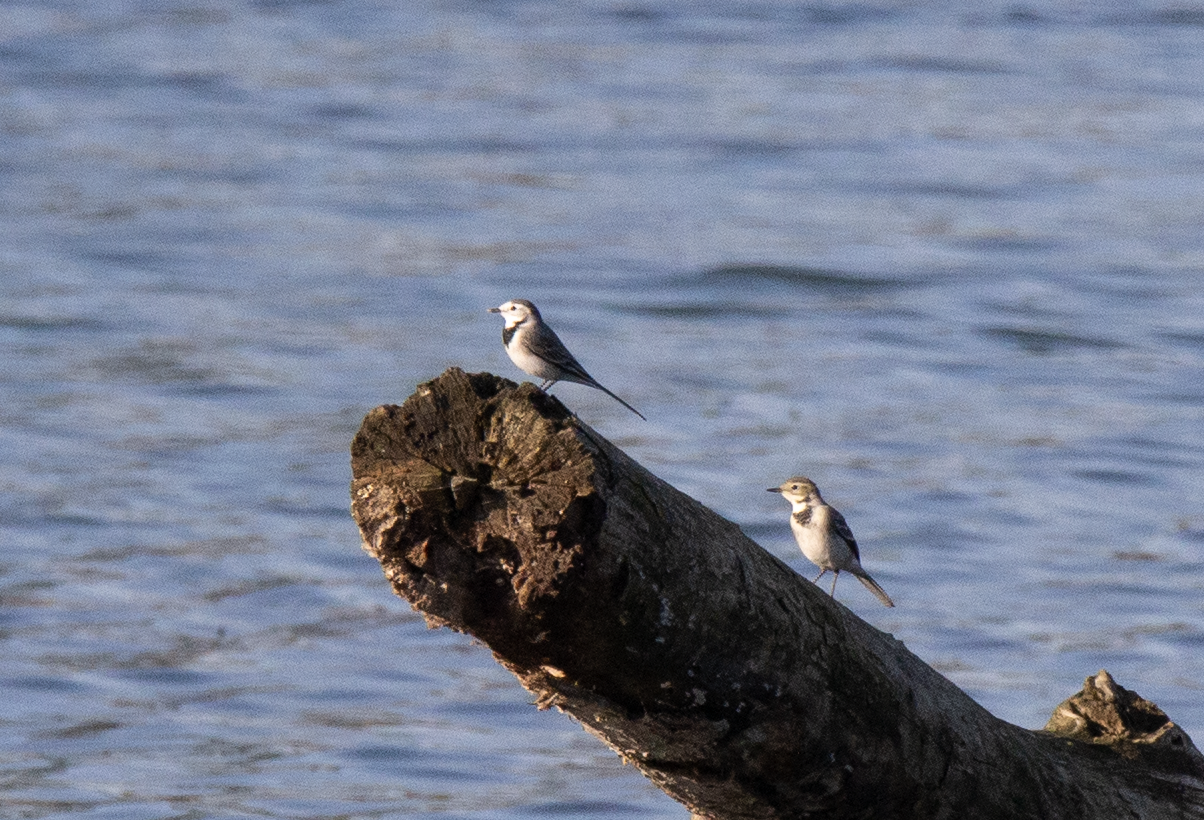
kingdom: Animalia
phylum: Chordata
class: Aves
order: Passeriformes
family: Motacillidae
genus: Motacilla
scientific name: Motacilla alba
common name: White wagtail
